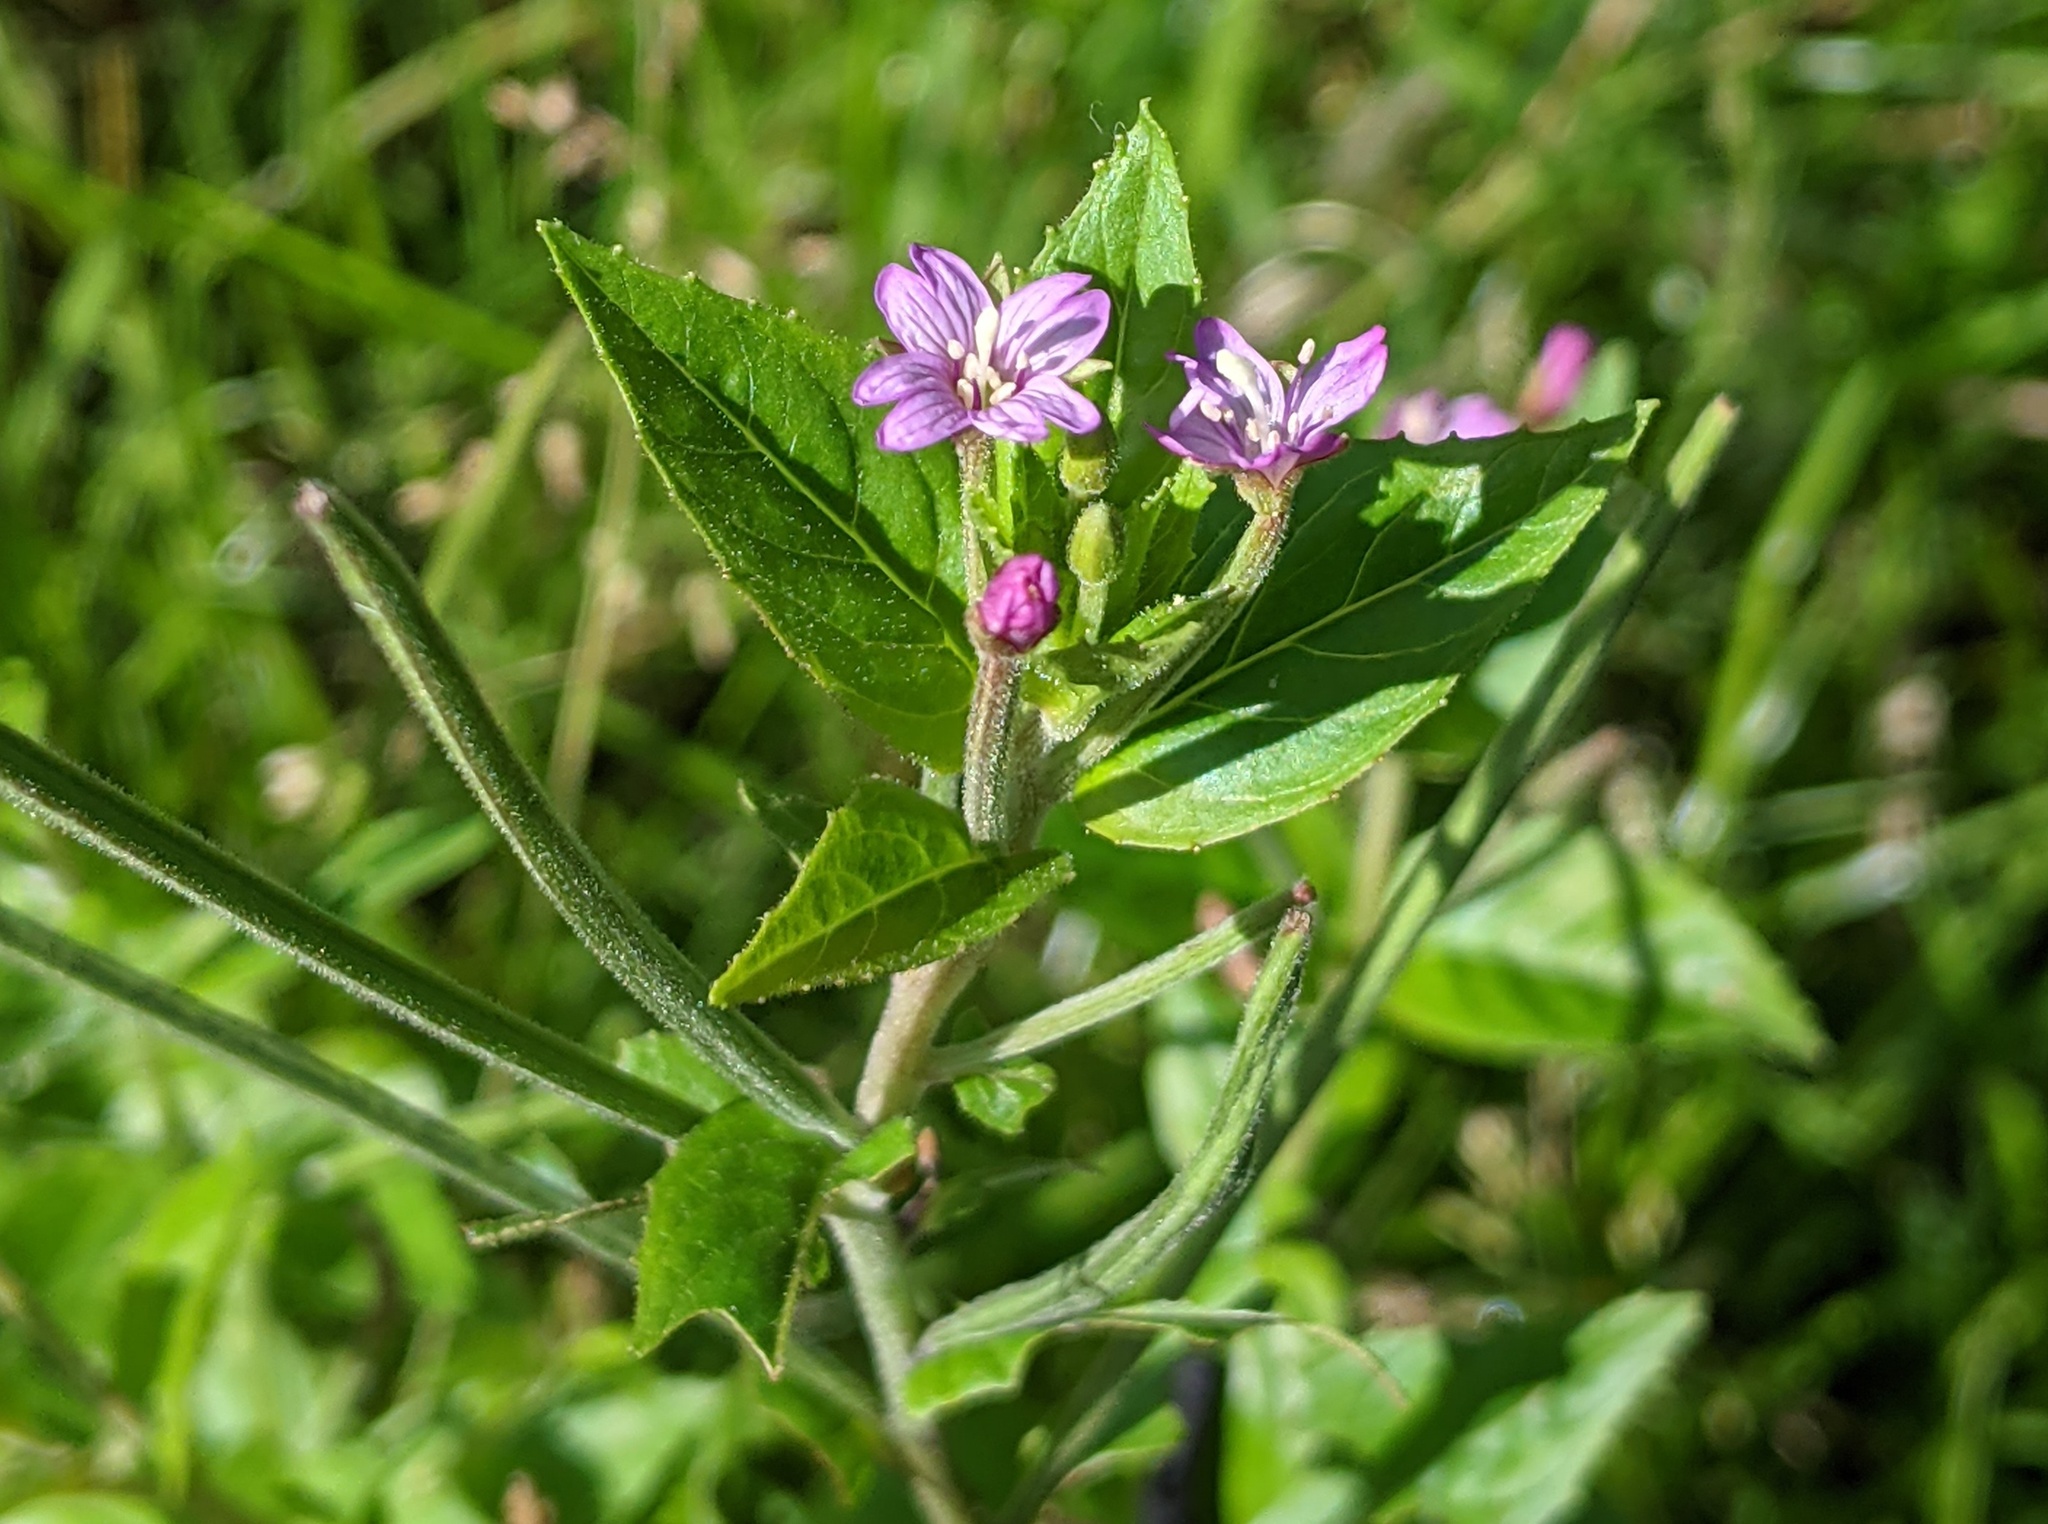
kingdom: Plantae
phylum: Tracheophyta
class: Magnoliopsida
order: Myrtales
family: Onagraceae
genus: Epilobium
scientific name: Epilobium ciliatum
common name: American willowherb
